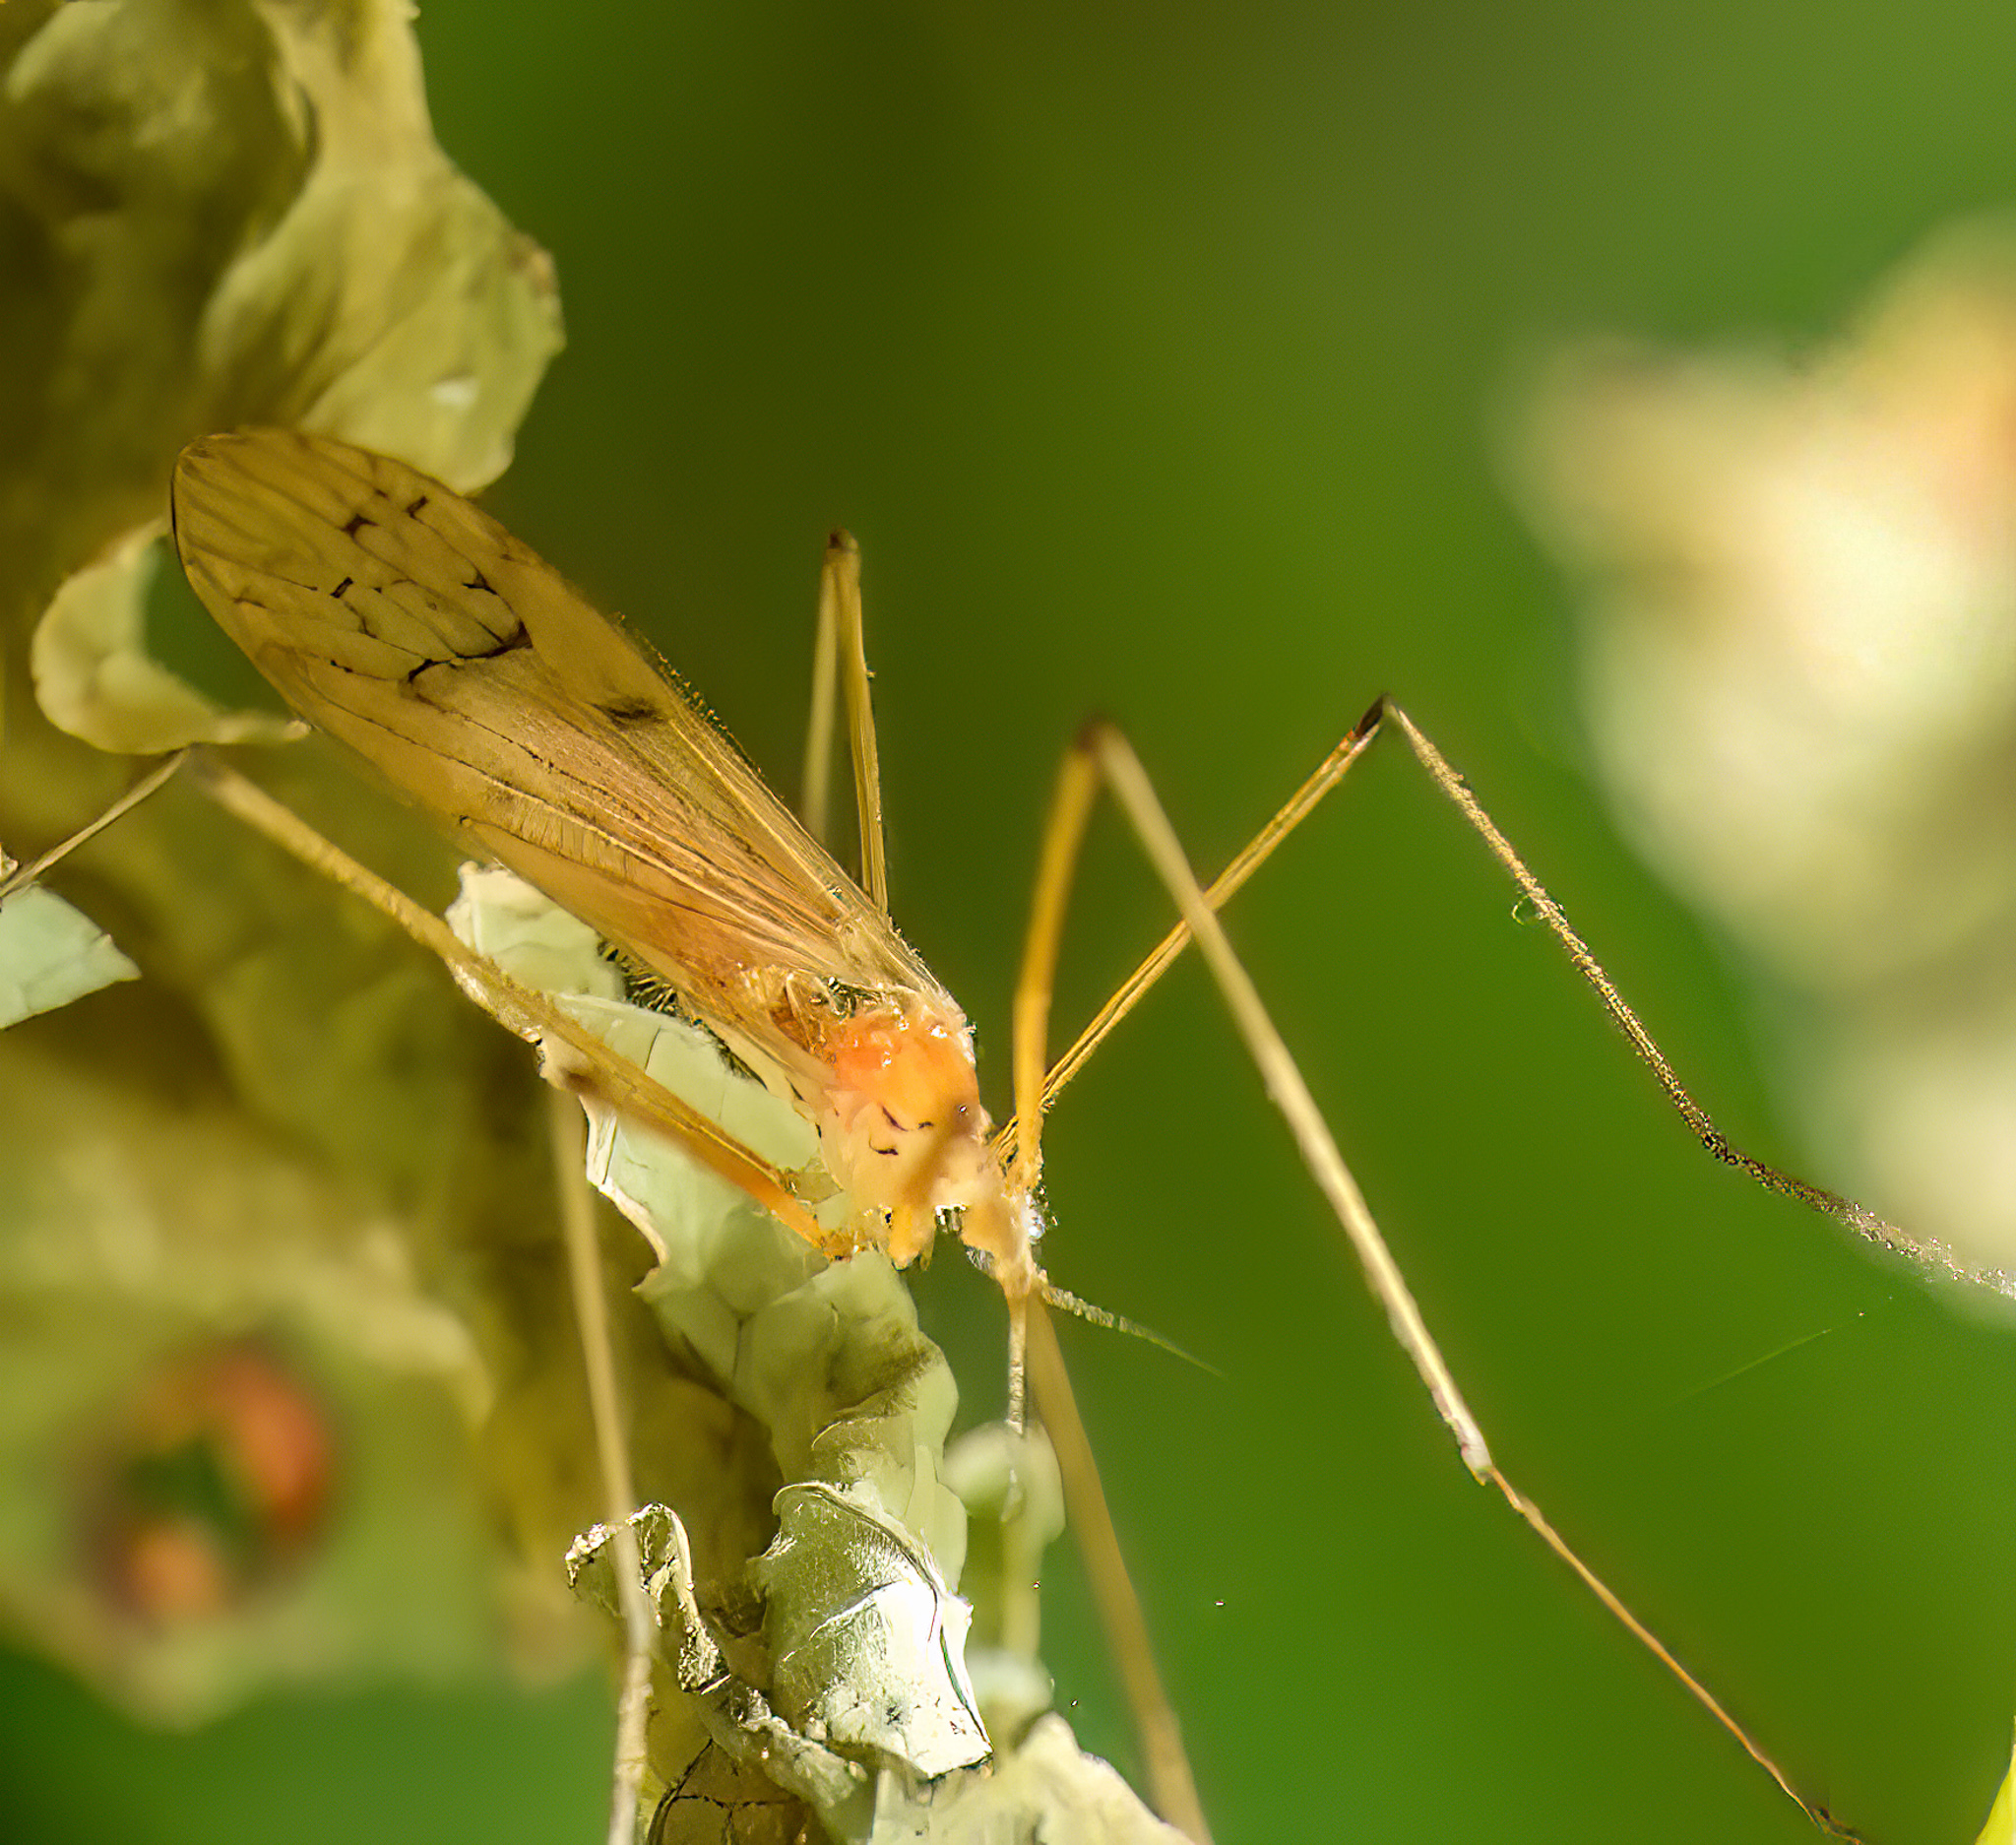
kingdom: Animalia
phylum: Arthropoda
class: Insecta
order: Diptera
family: Limoniidae
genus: Cladura
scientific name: Cladura flavoferruginea
